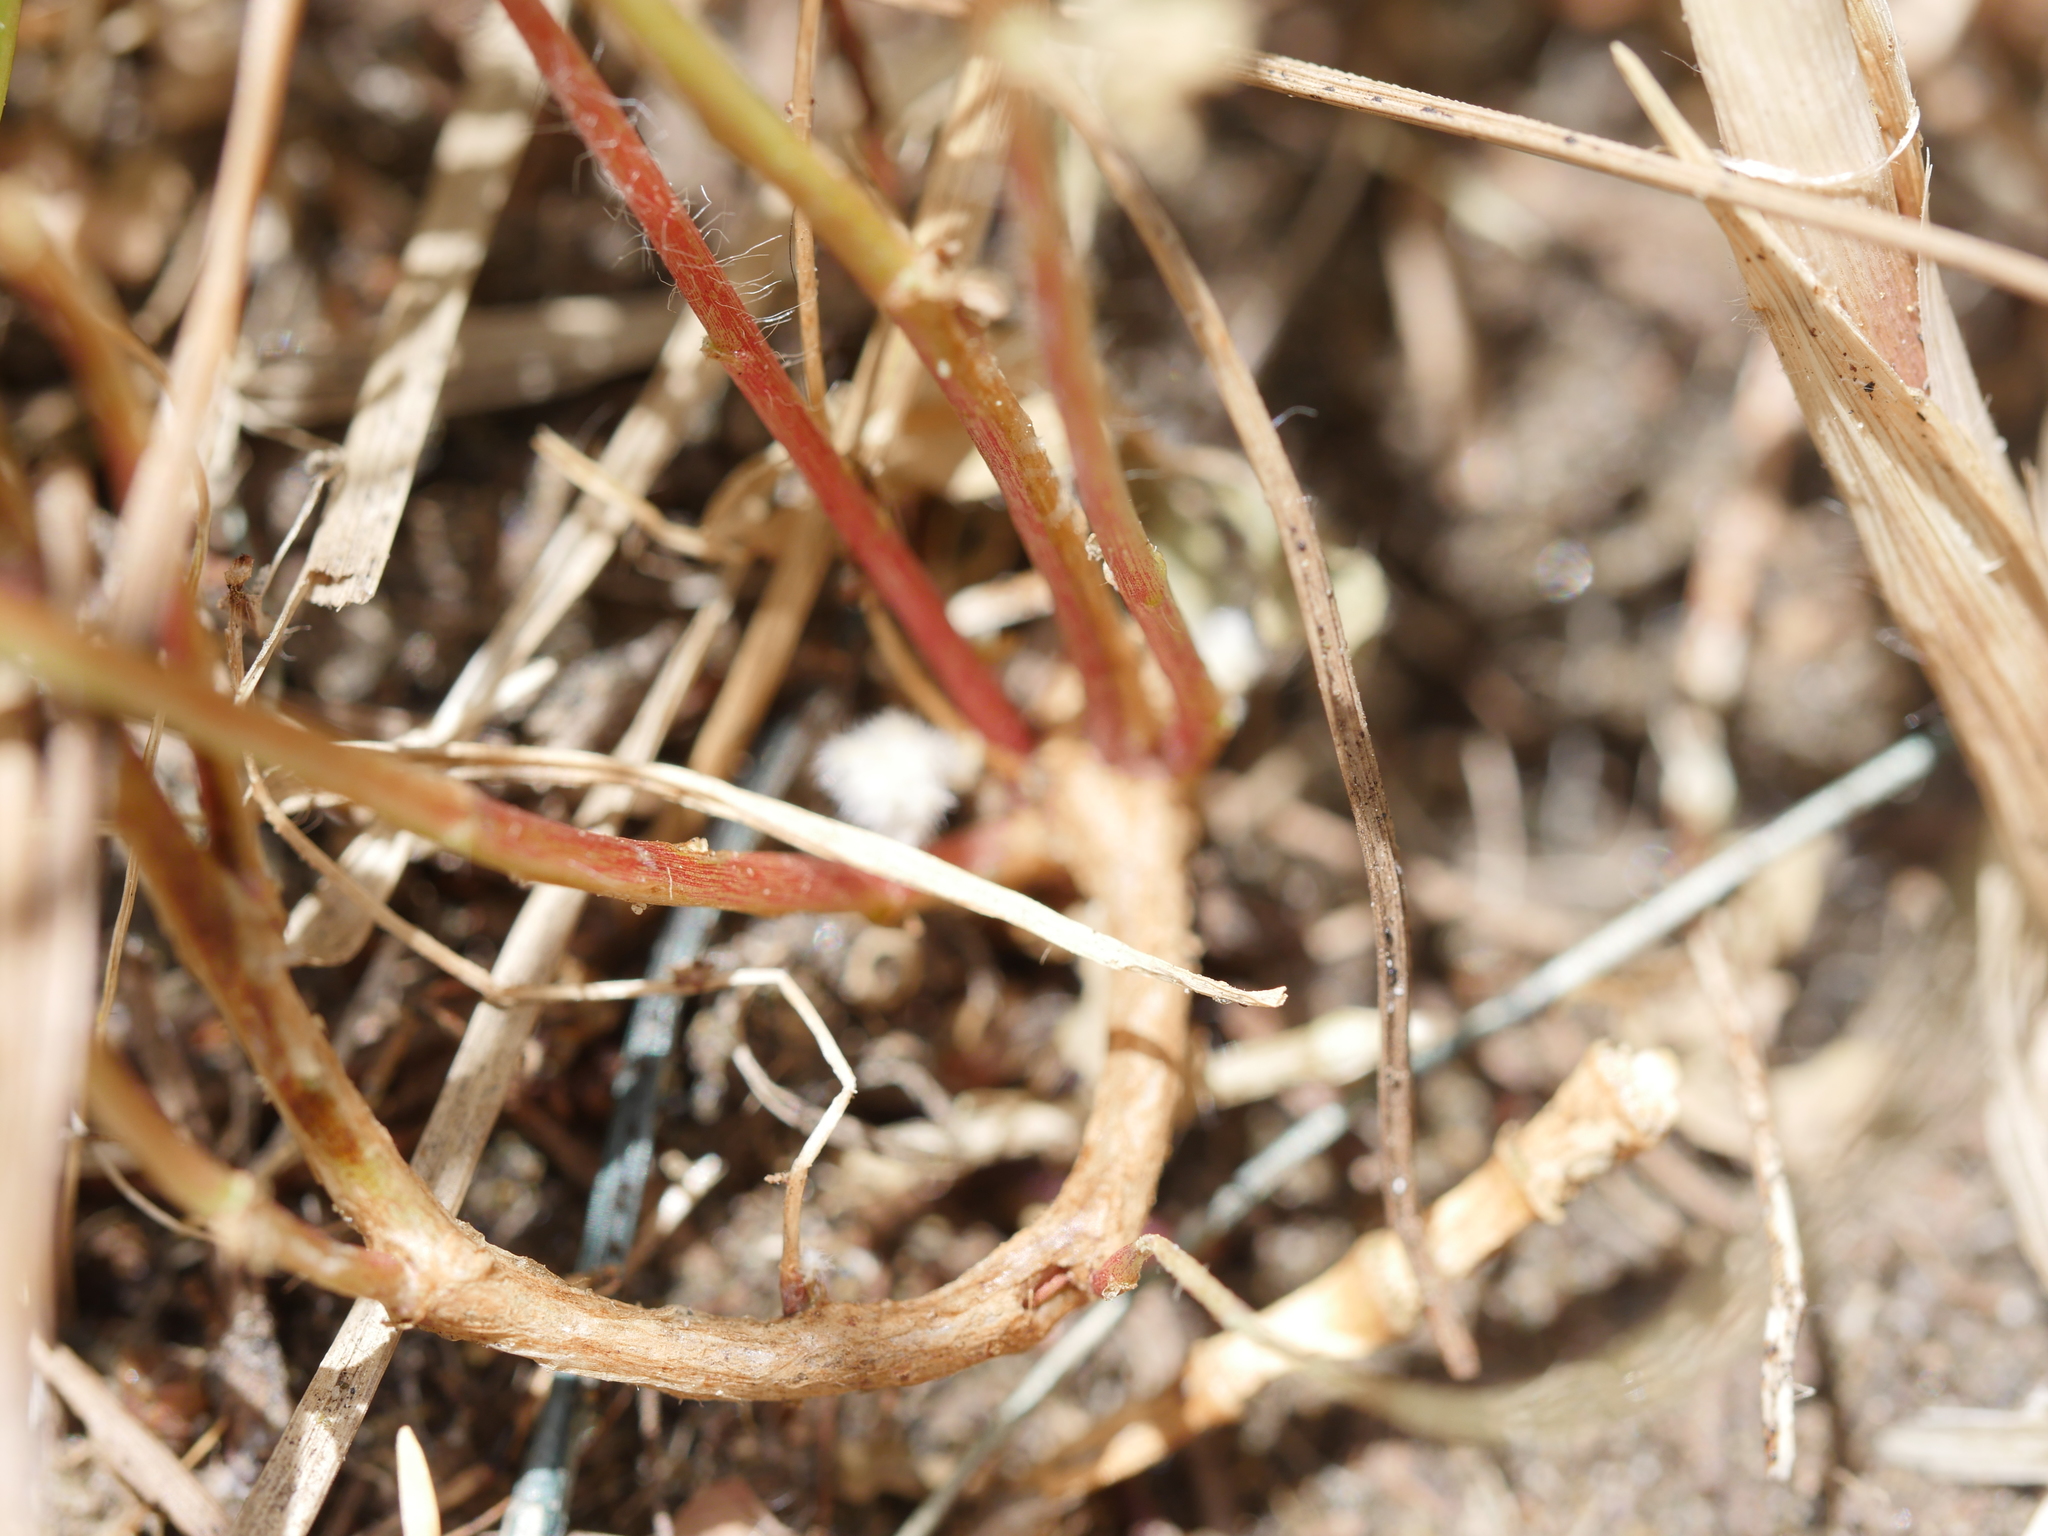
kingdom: Plantae
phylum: Tracheophyta
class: Magnoliopsida
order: Fabales
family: Fabaceae
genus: Lotus
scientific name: Lotus subbiflorus
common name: Hairy bird's-foot trefoil
